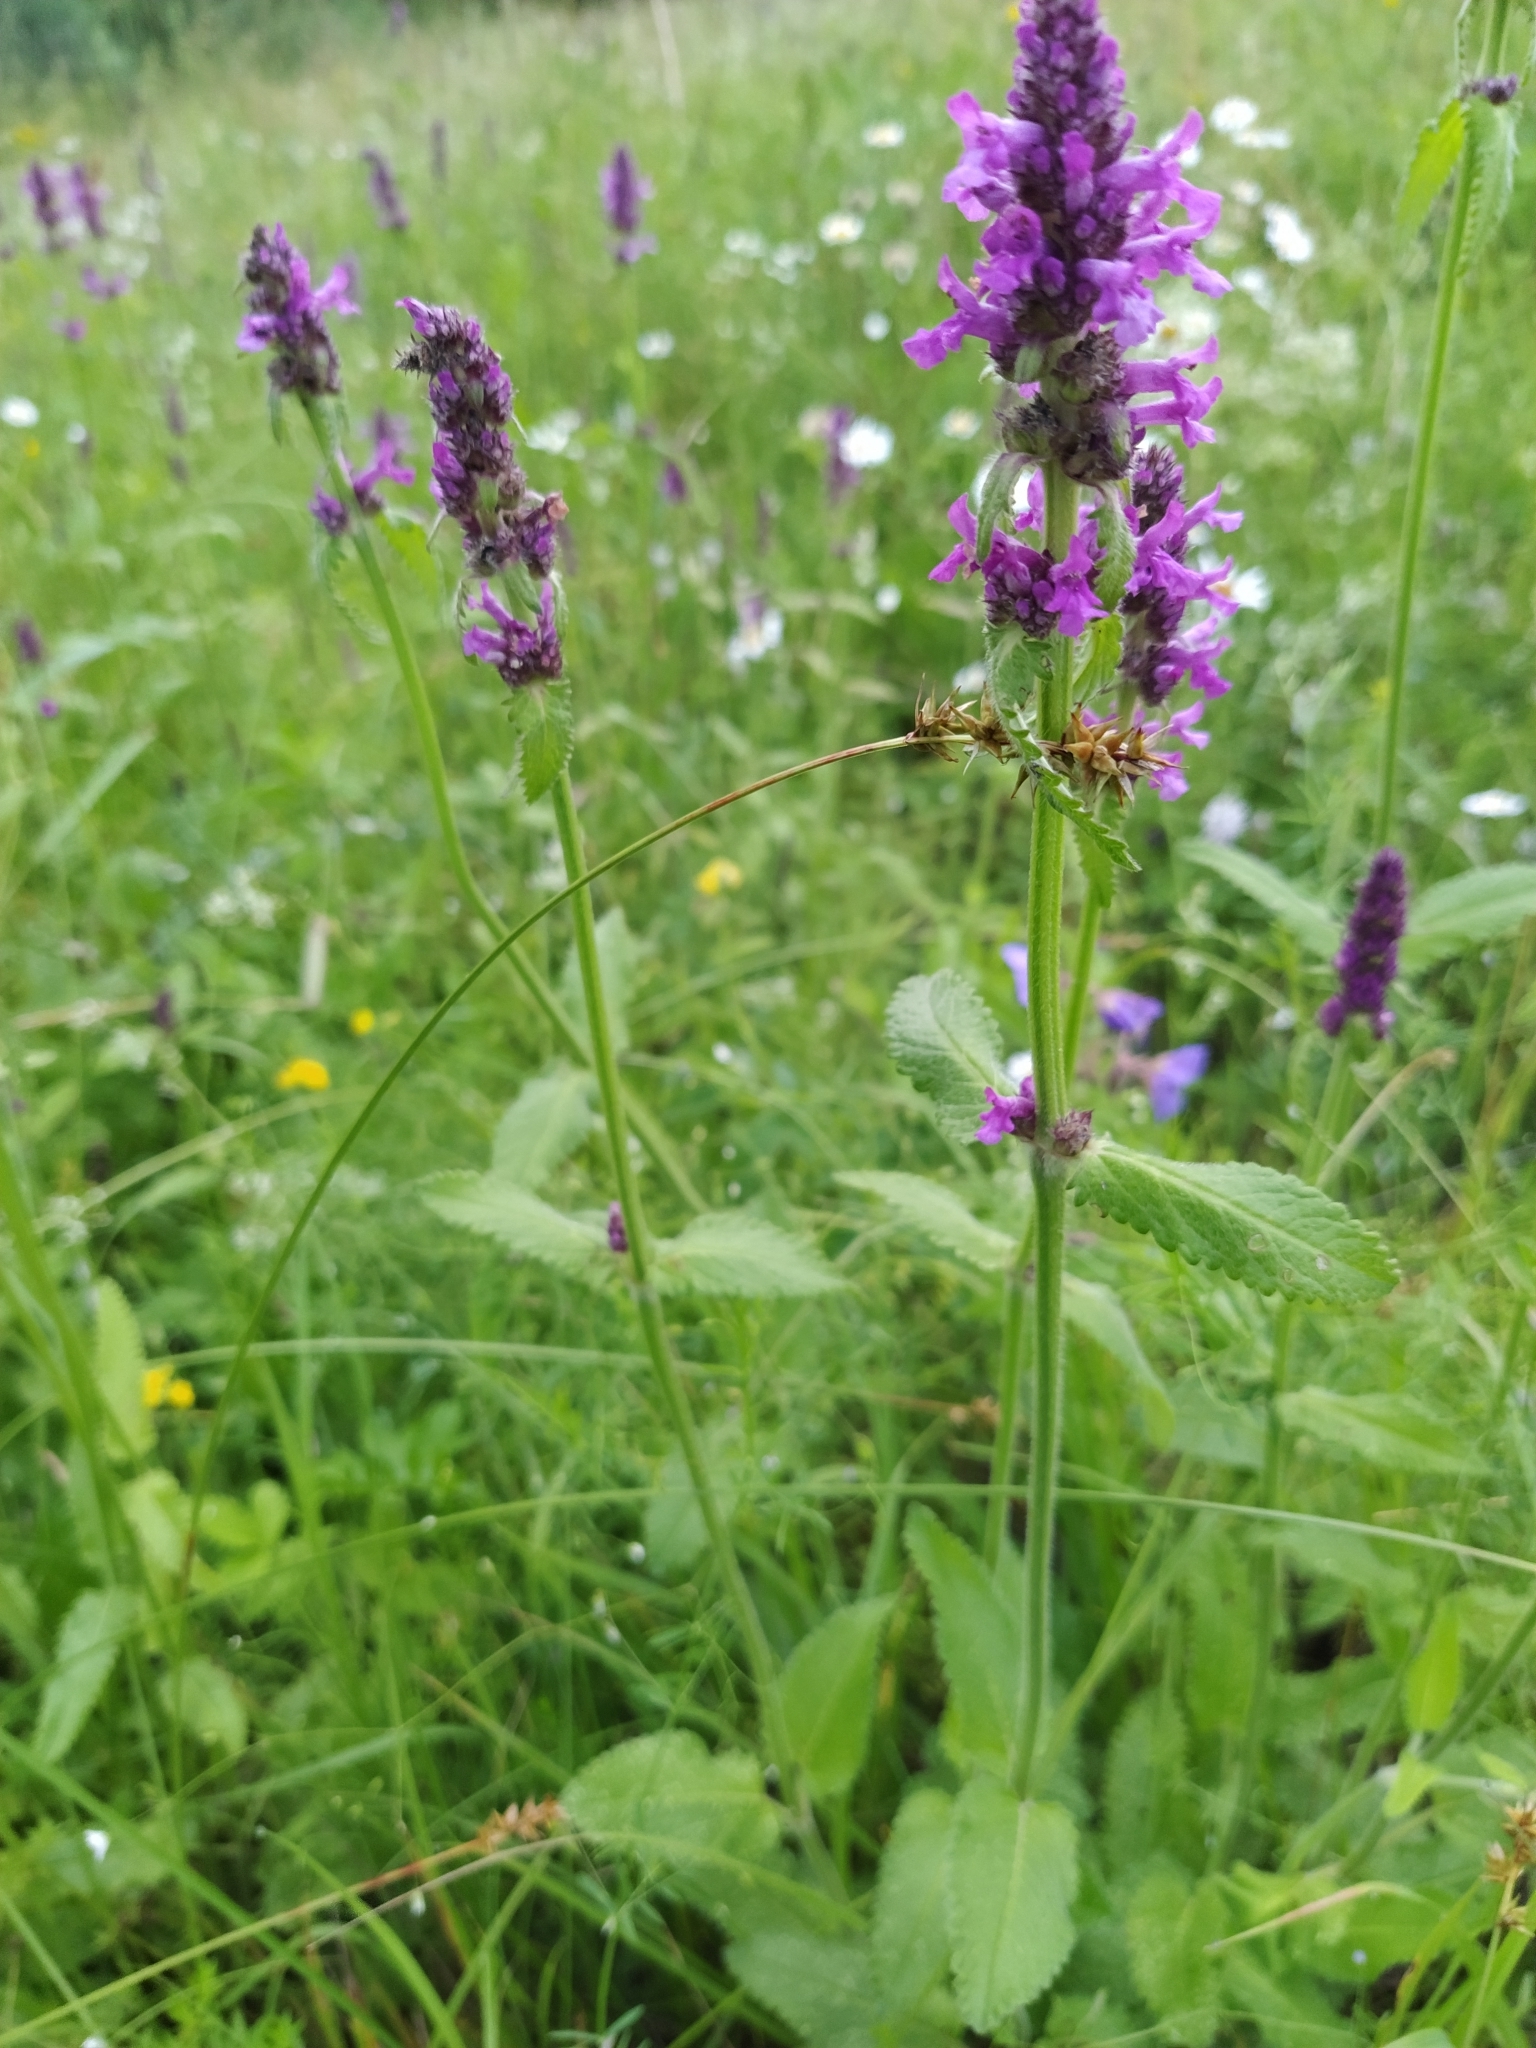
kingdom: Plantae
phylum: Tracheophyta
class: Magnoliopsida
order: Lamiales
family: Lamiaceae
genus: Betonica
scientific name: Betonica officinalis
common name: Bishop's-wort
